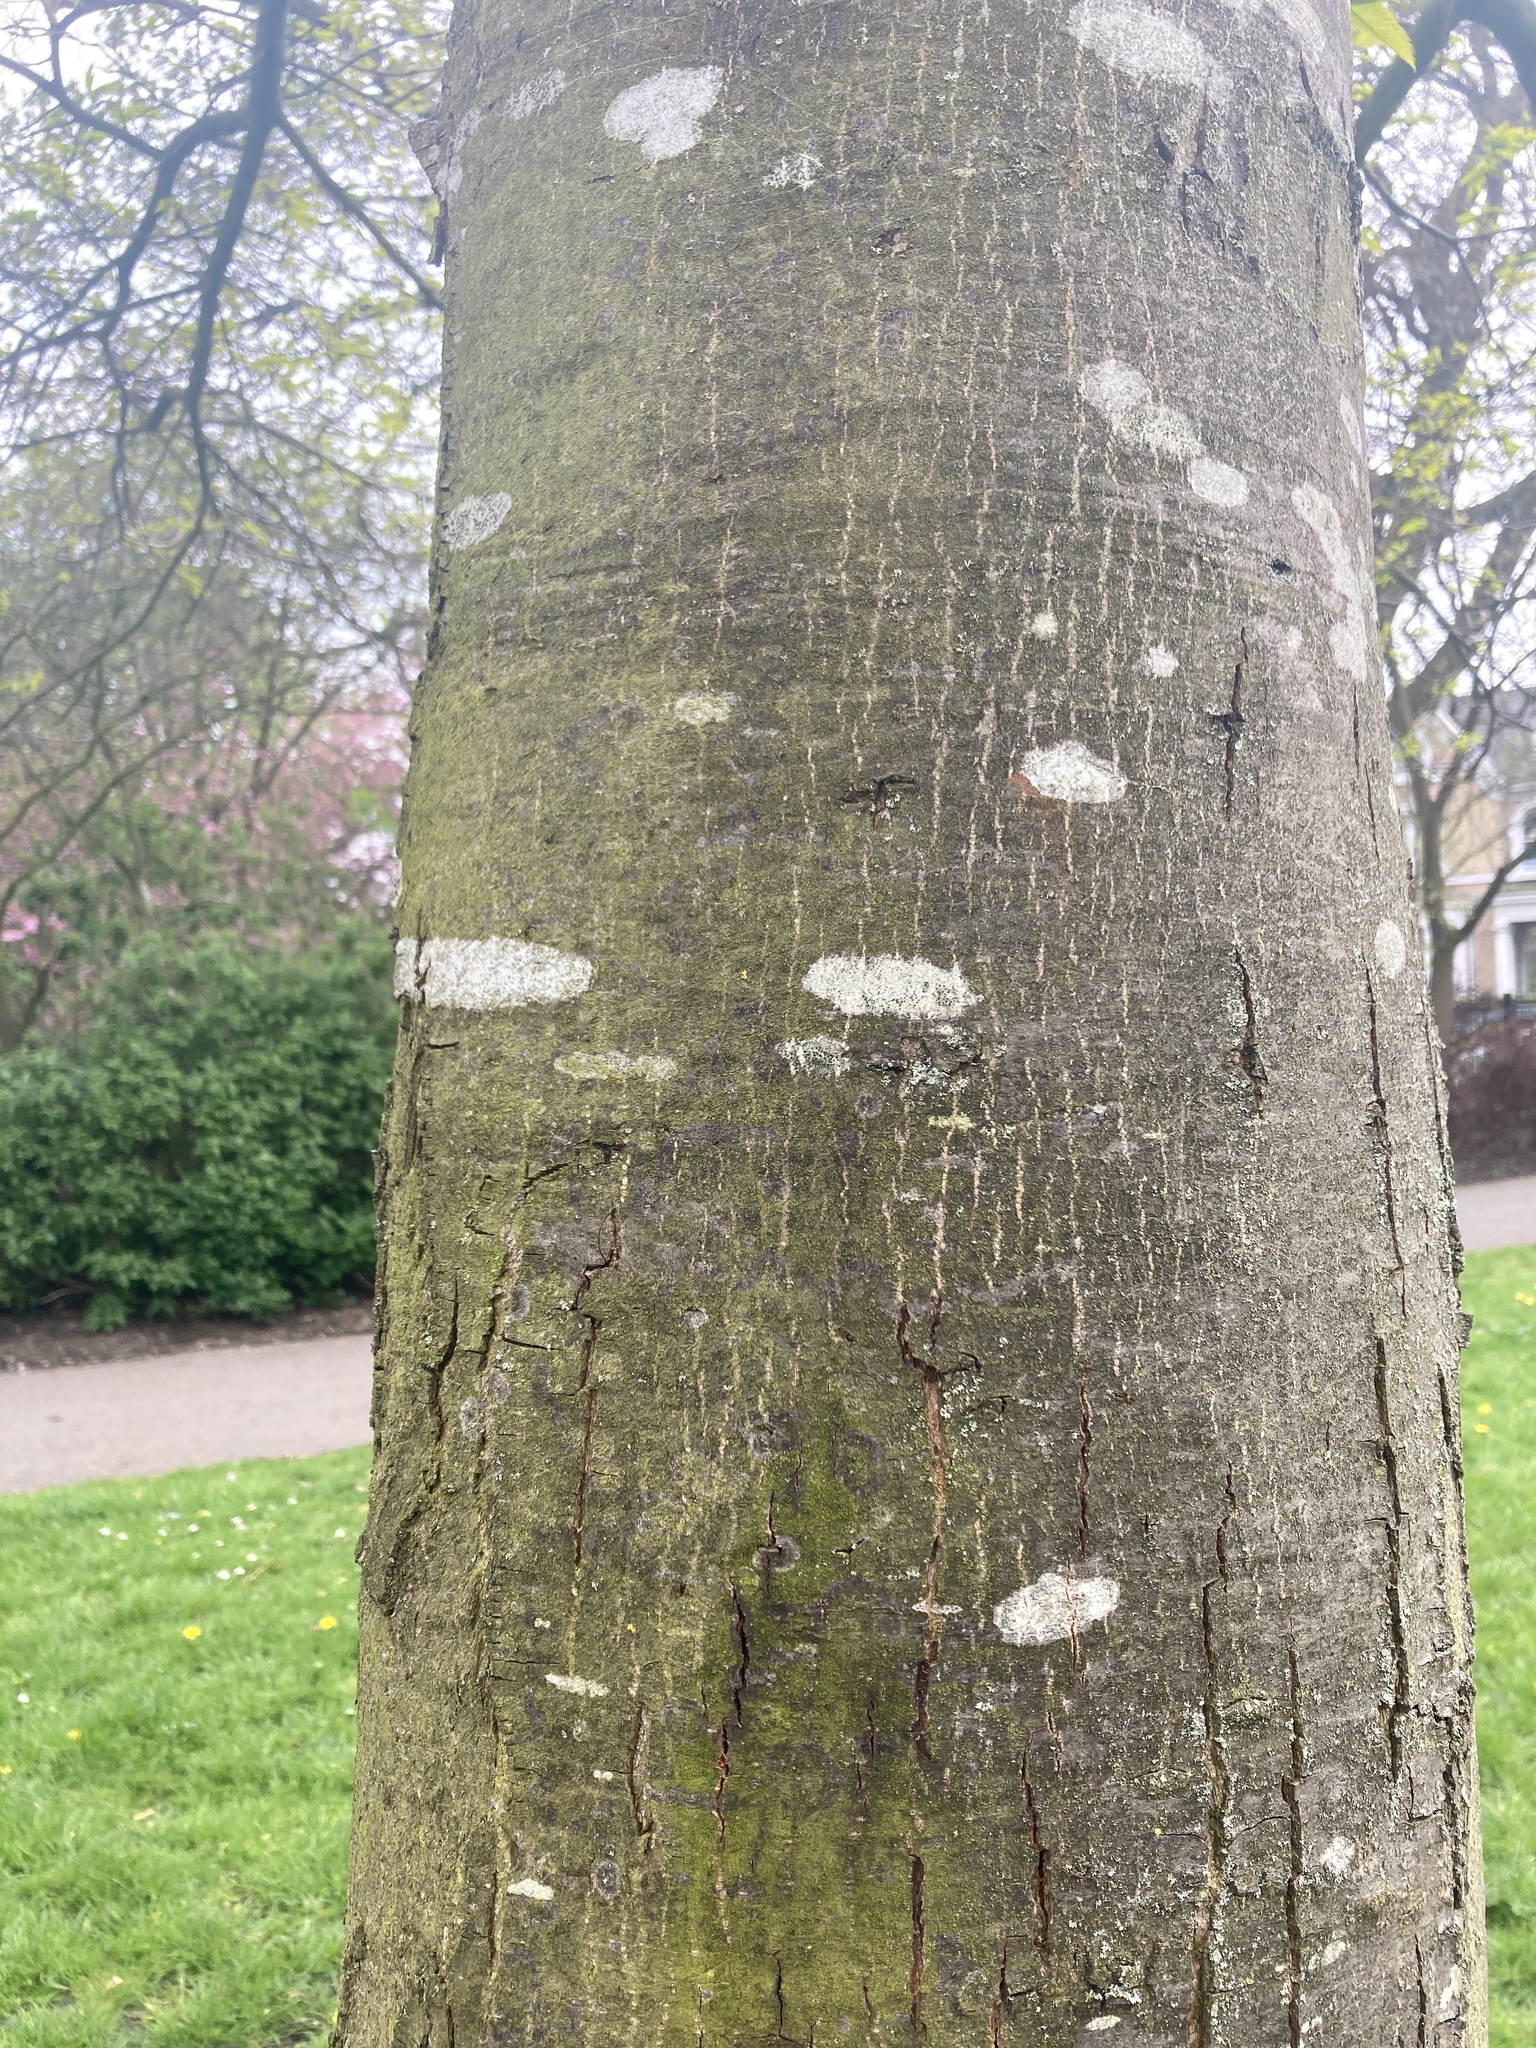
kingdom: Plantae
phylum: Tracheophyta
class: Magnoliopsida
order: Fagales
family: Fagaceae
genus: Castanea
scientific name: Castanea sativa
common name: Sweet chestnut
